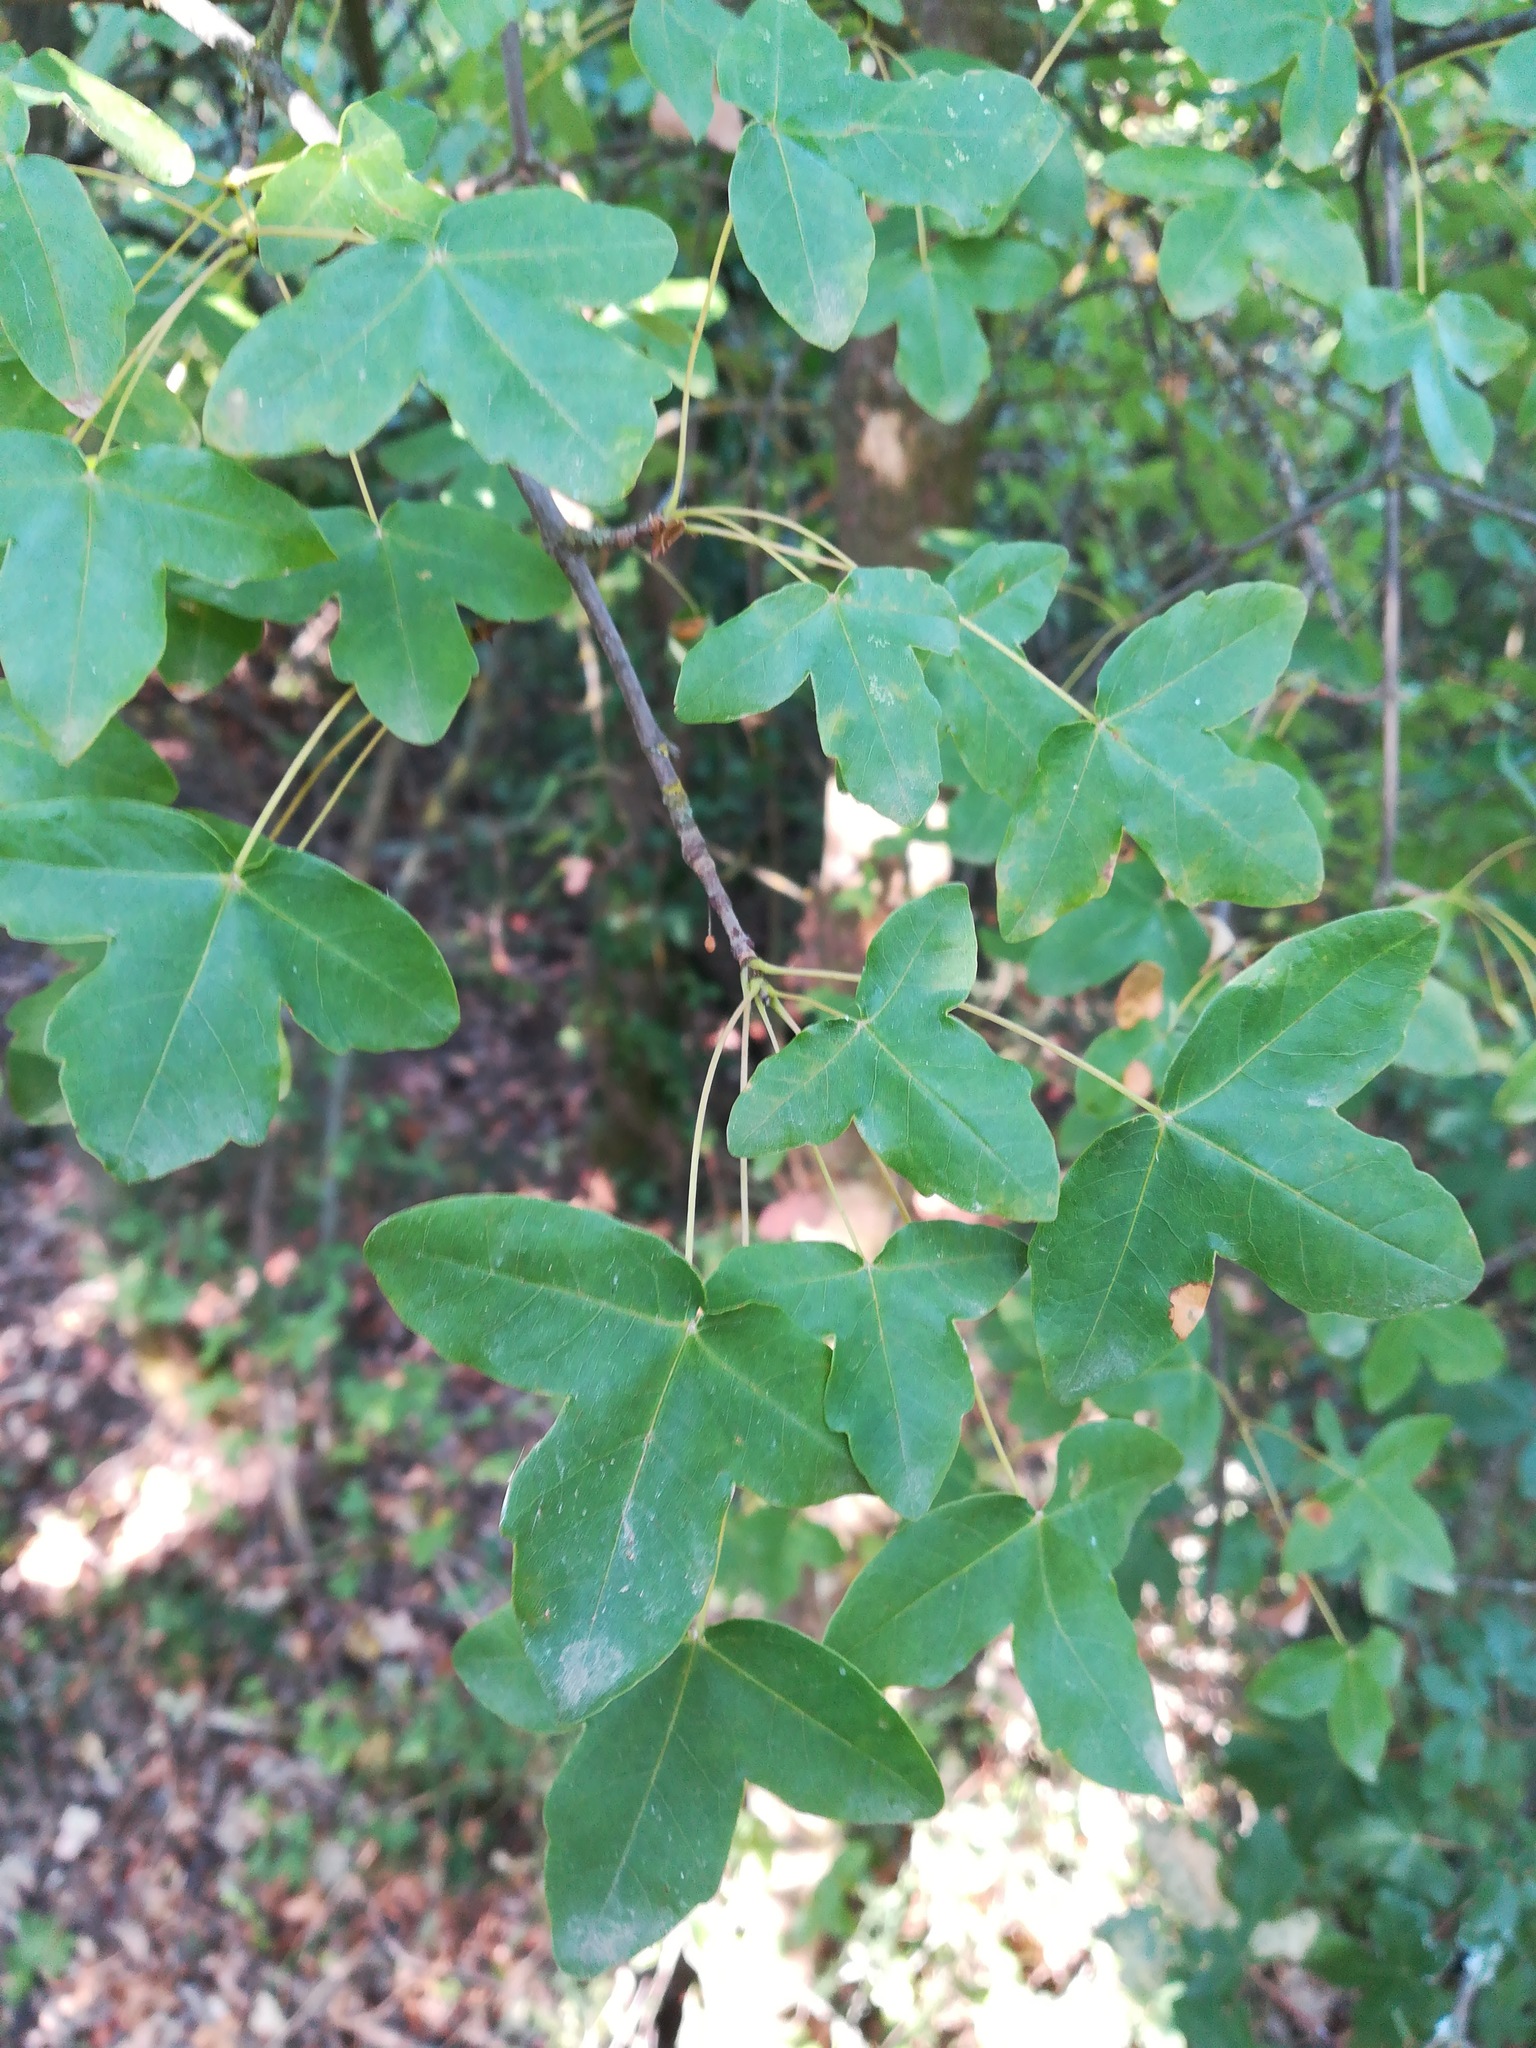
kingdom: Plantae
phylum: Tracheophyta
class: Magnoliopsida
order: Sapindales
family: Sapindaceae
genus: Acer
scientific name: Acer monspessulanum
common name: Montpellier maple
